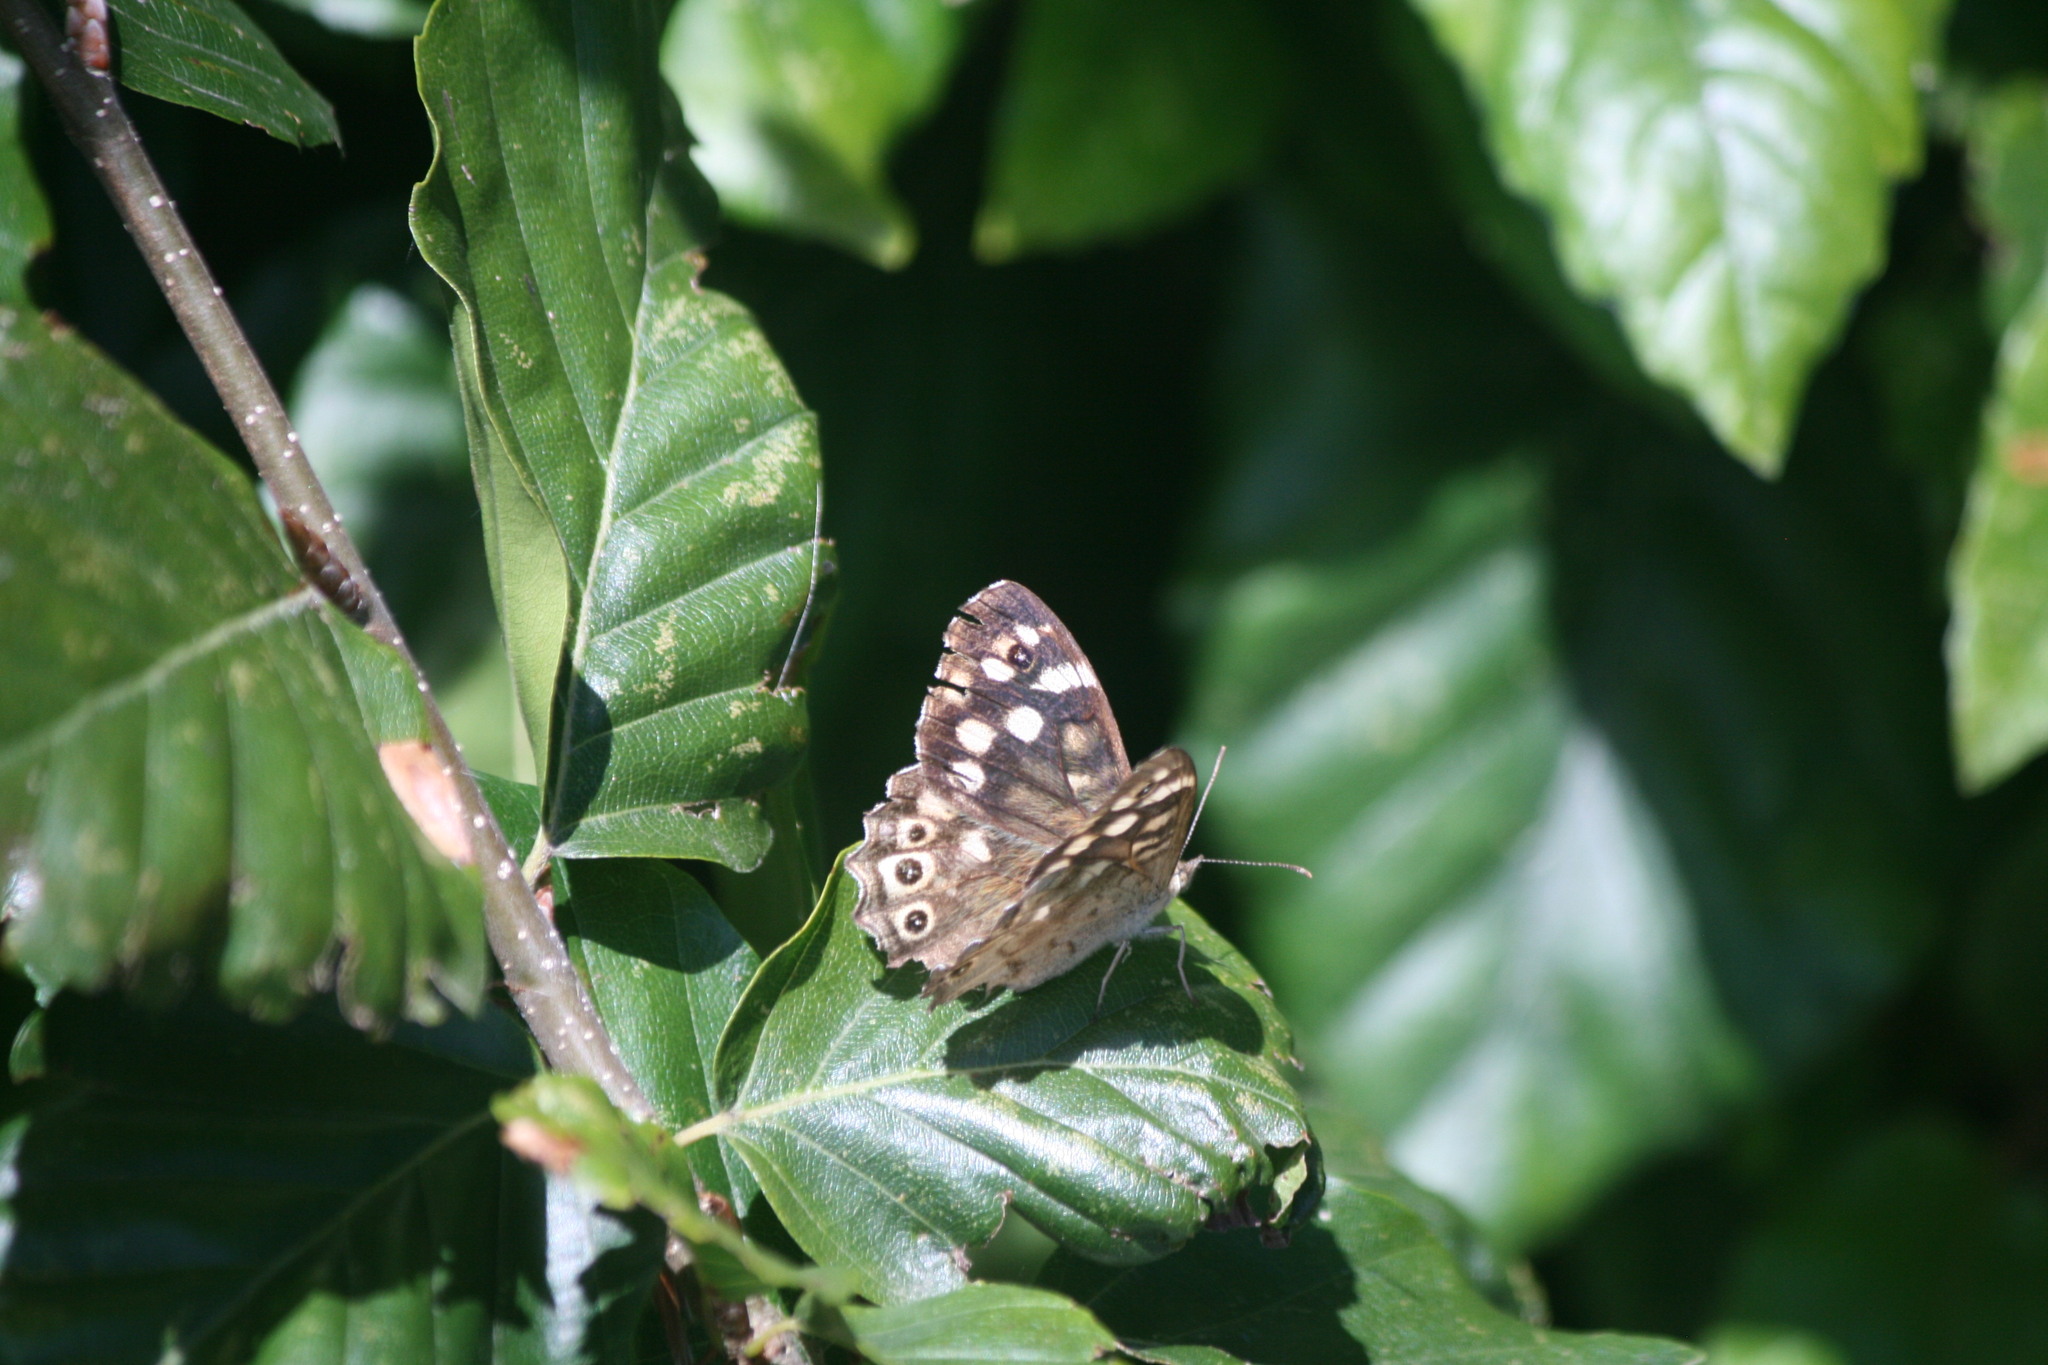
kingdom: Animalia
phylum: Arthropoda
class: Insecta
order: Lepidoptera
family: Nymphalidae
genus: Pararge
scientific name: Pararge aegeria
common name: Speckled wood
